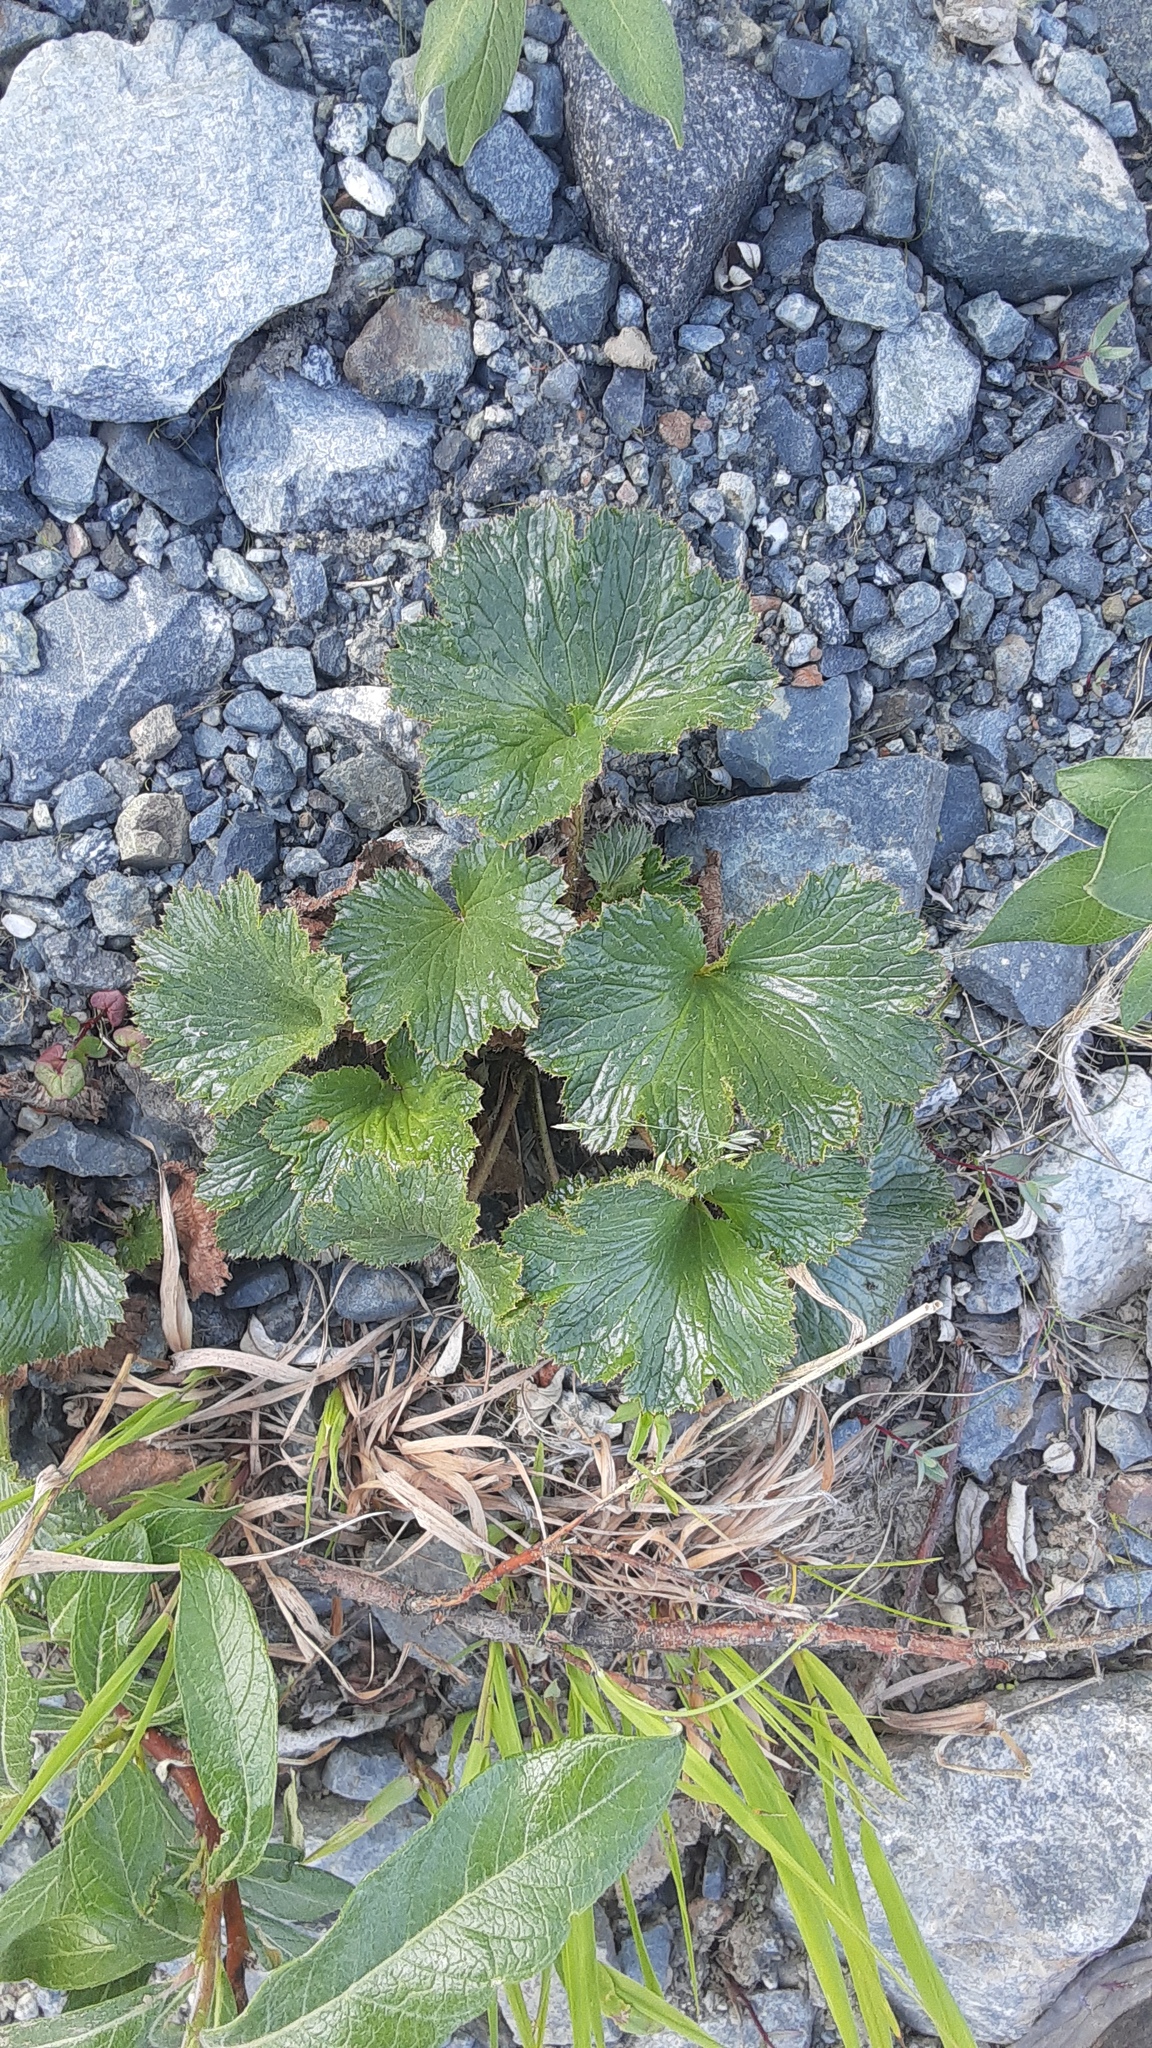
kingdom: Plantae
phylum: Tracheophyta
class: Magnoliopsida
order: Saxifragales
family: Saxifragaceae
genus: Boykinia
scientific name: Boykinia richardsonii
